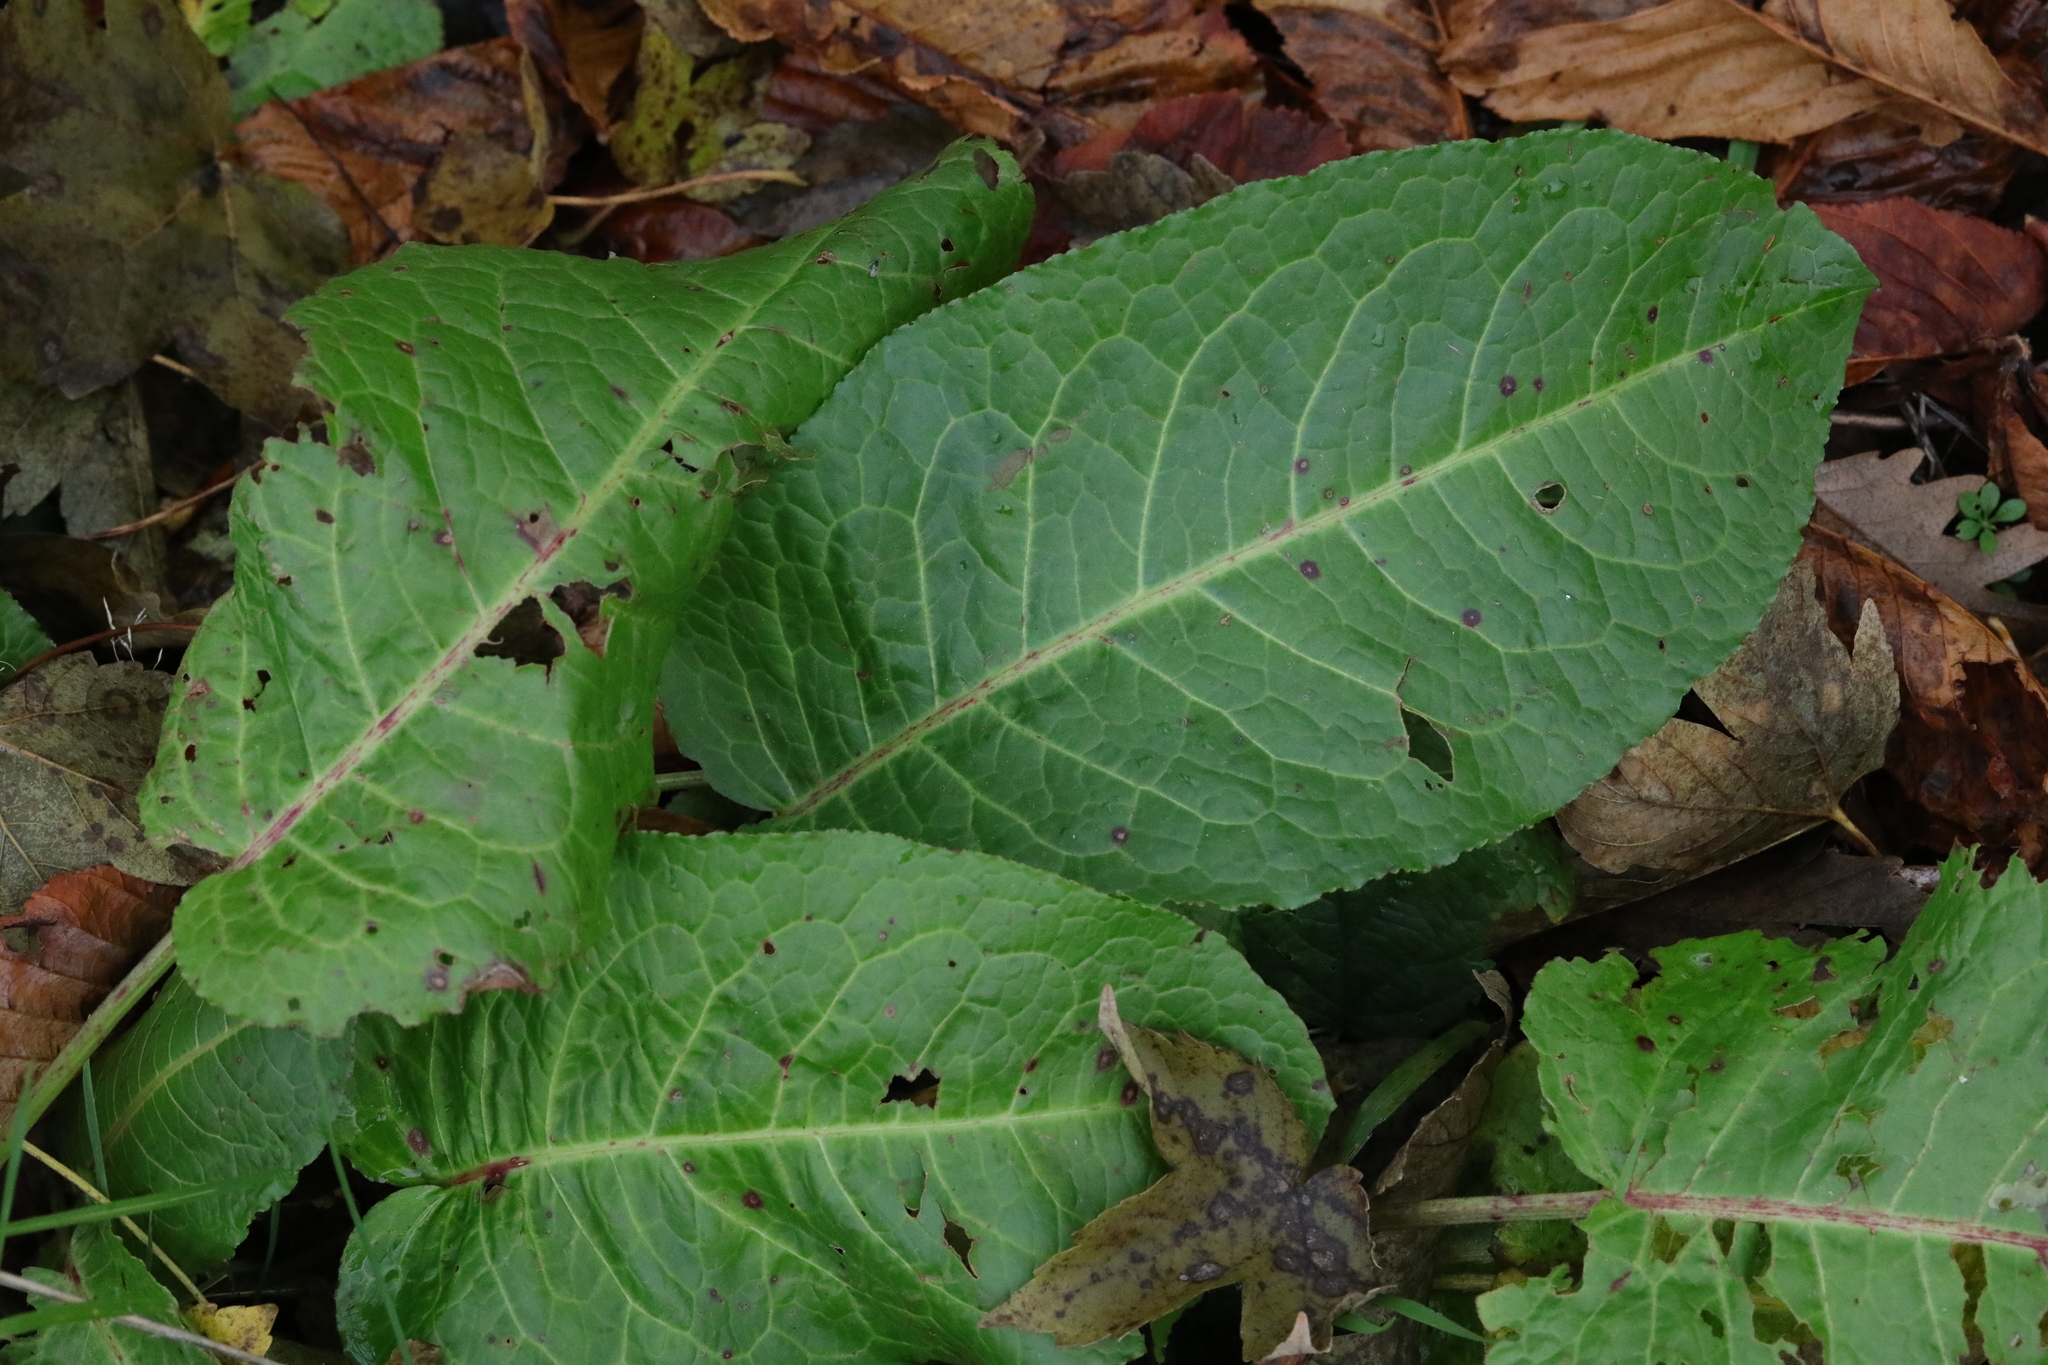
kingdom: Plantae
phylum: Tracheophyta
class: Magnoliopsida
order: Caryophyllales
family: Polygonaceae
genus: Rumex
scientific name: Rumex obtusifolius
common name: Bitter dock
